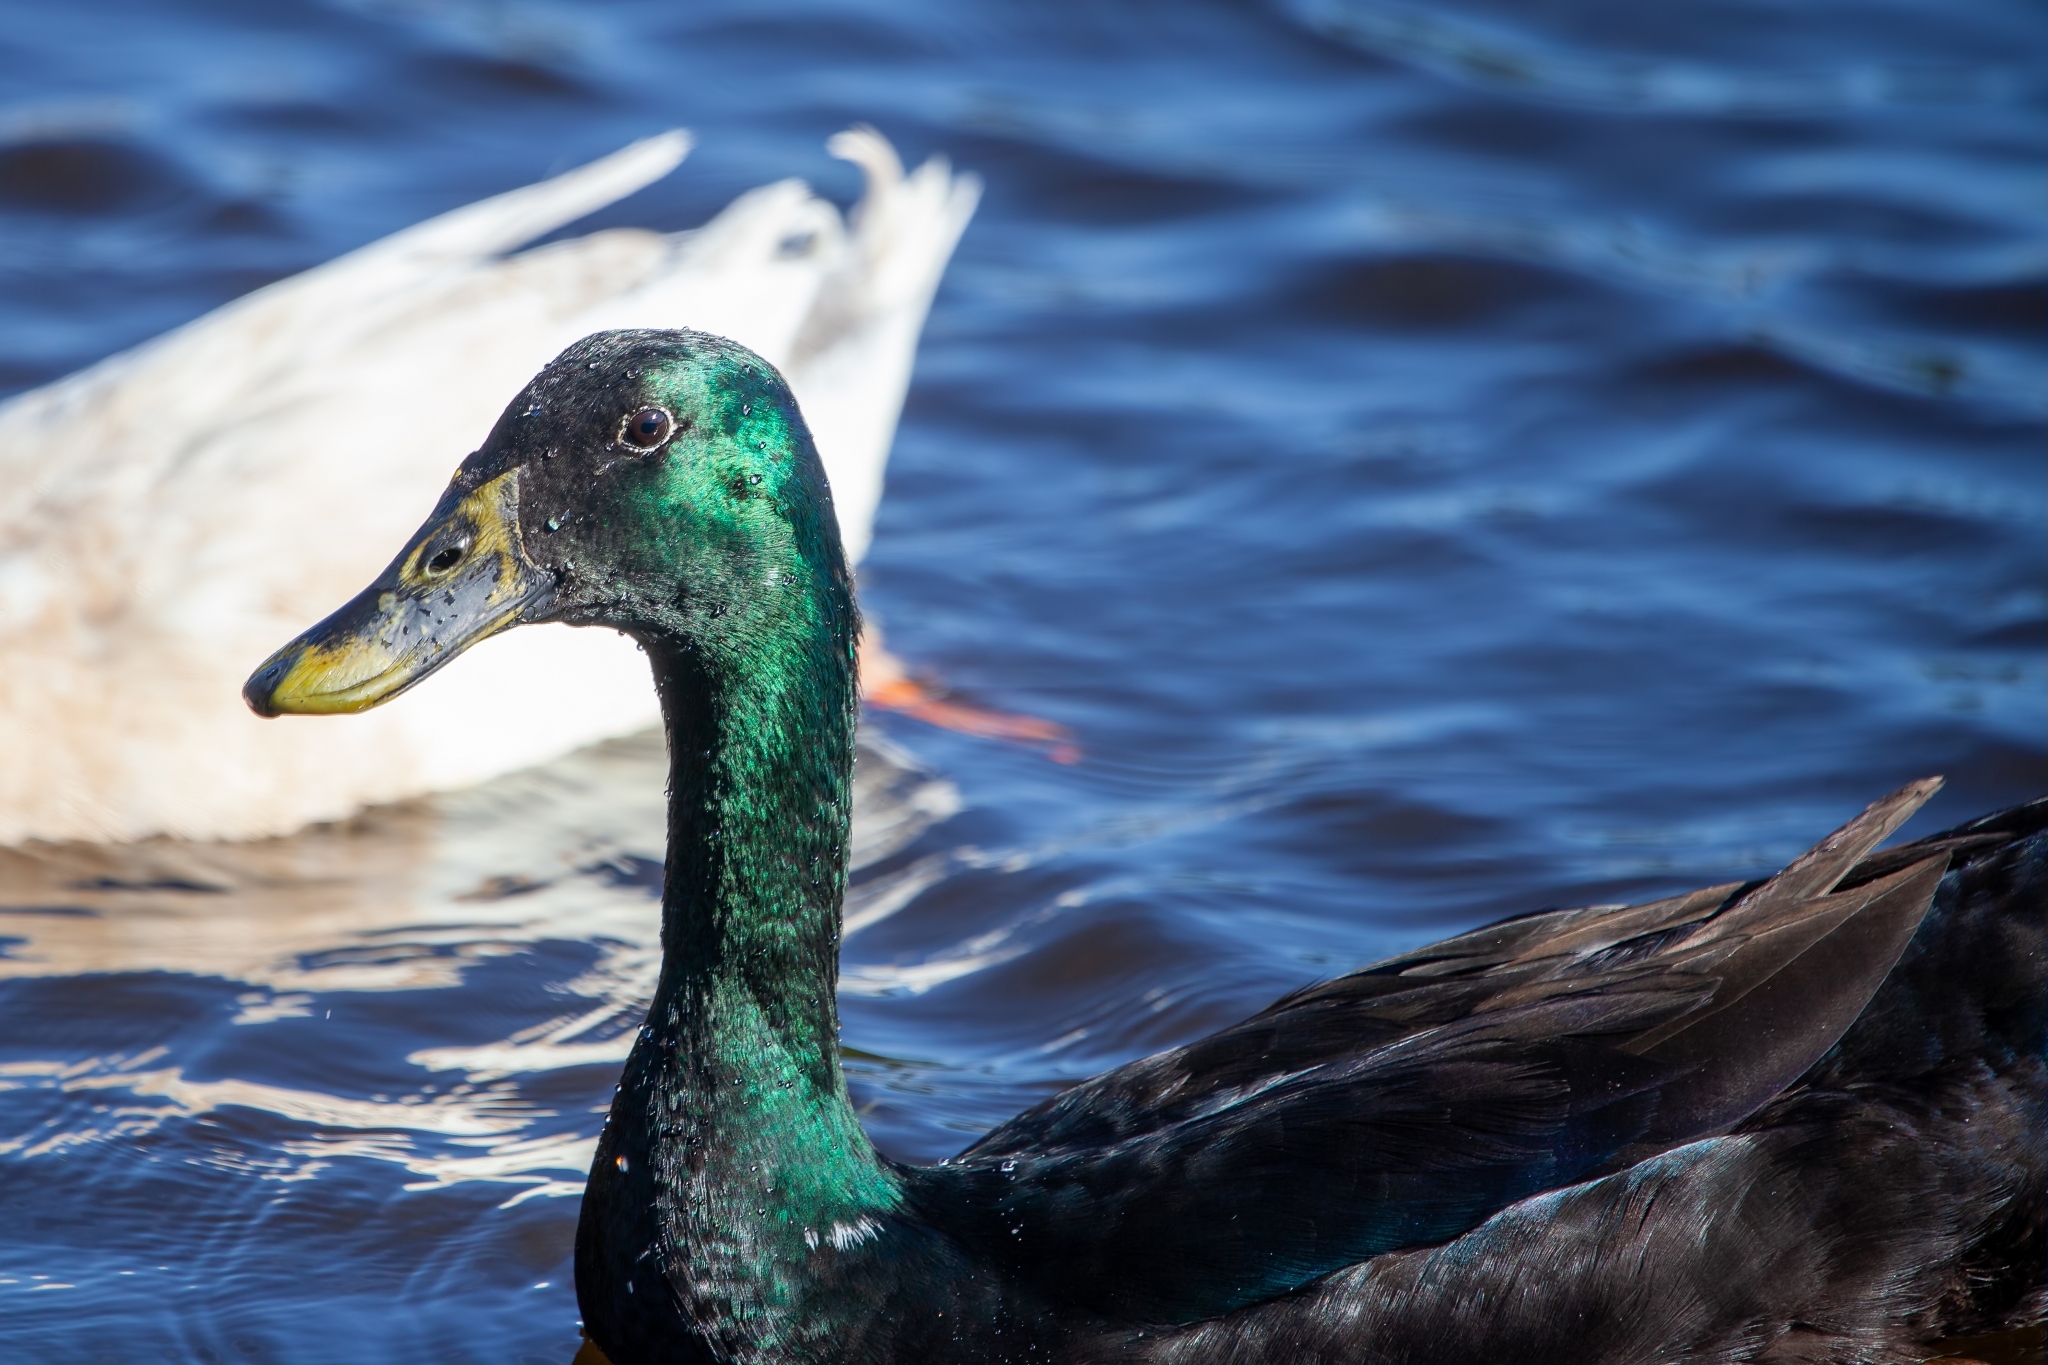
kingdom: Animalia
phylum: Chordata
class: Aves
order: Anseriformes
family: Anatidae
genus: Anas
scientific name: Anas platyrhynchos
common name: Mallard
